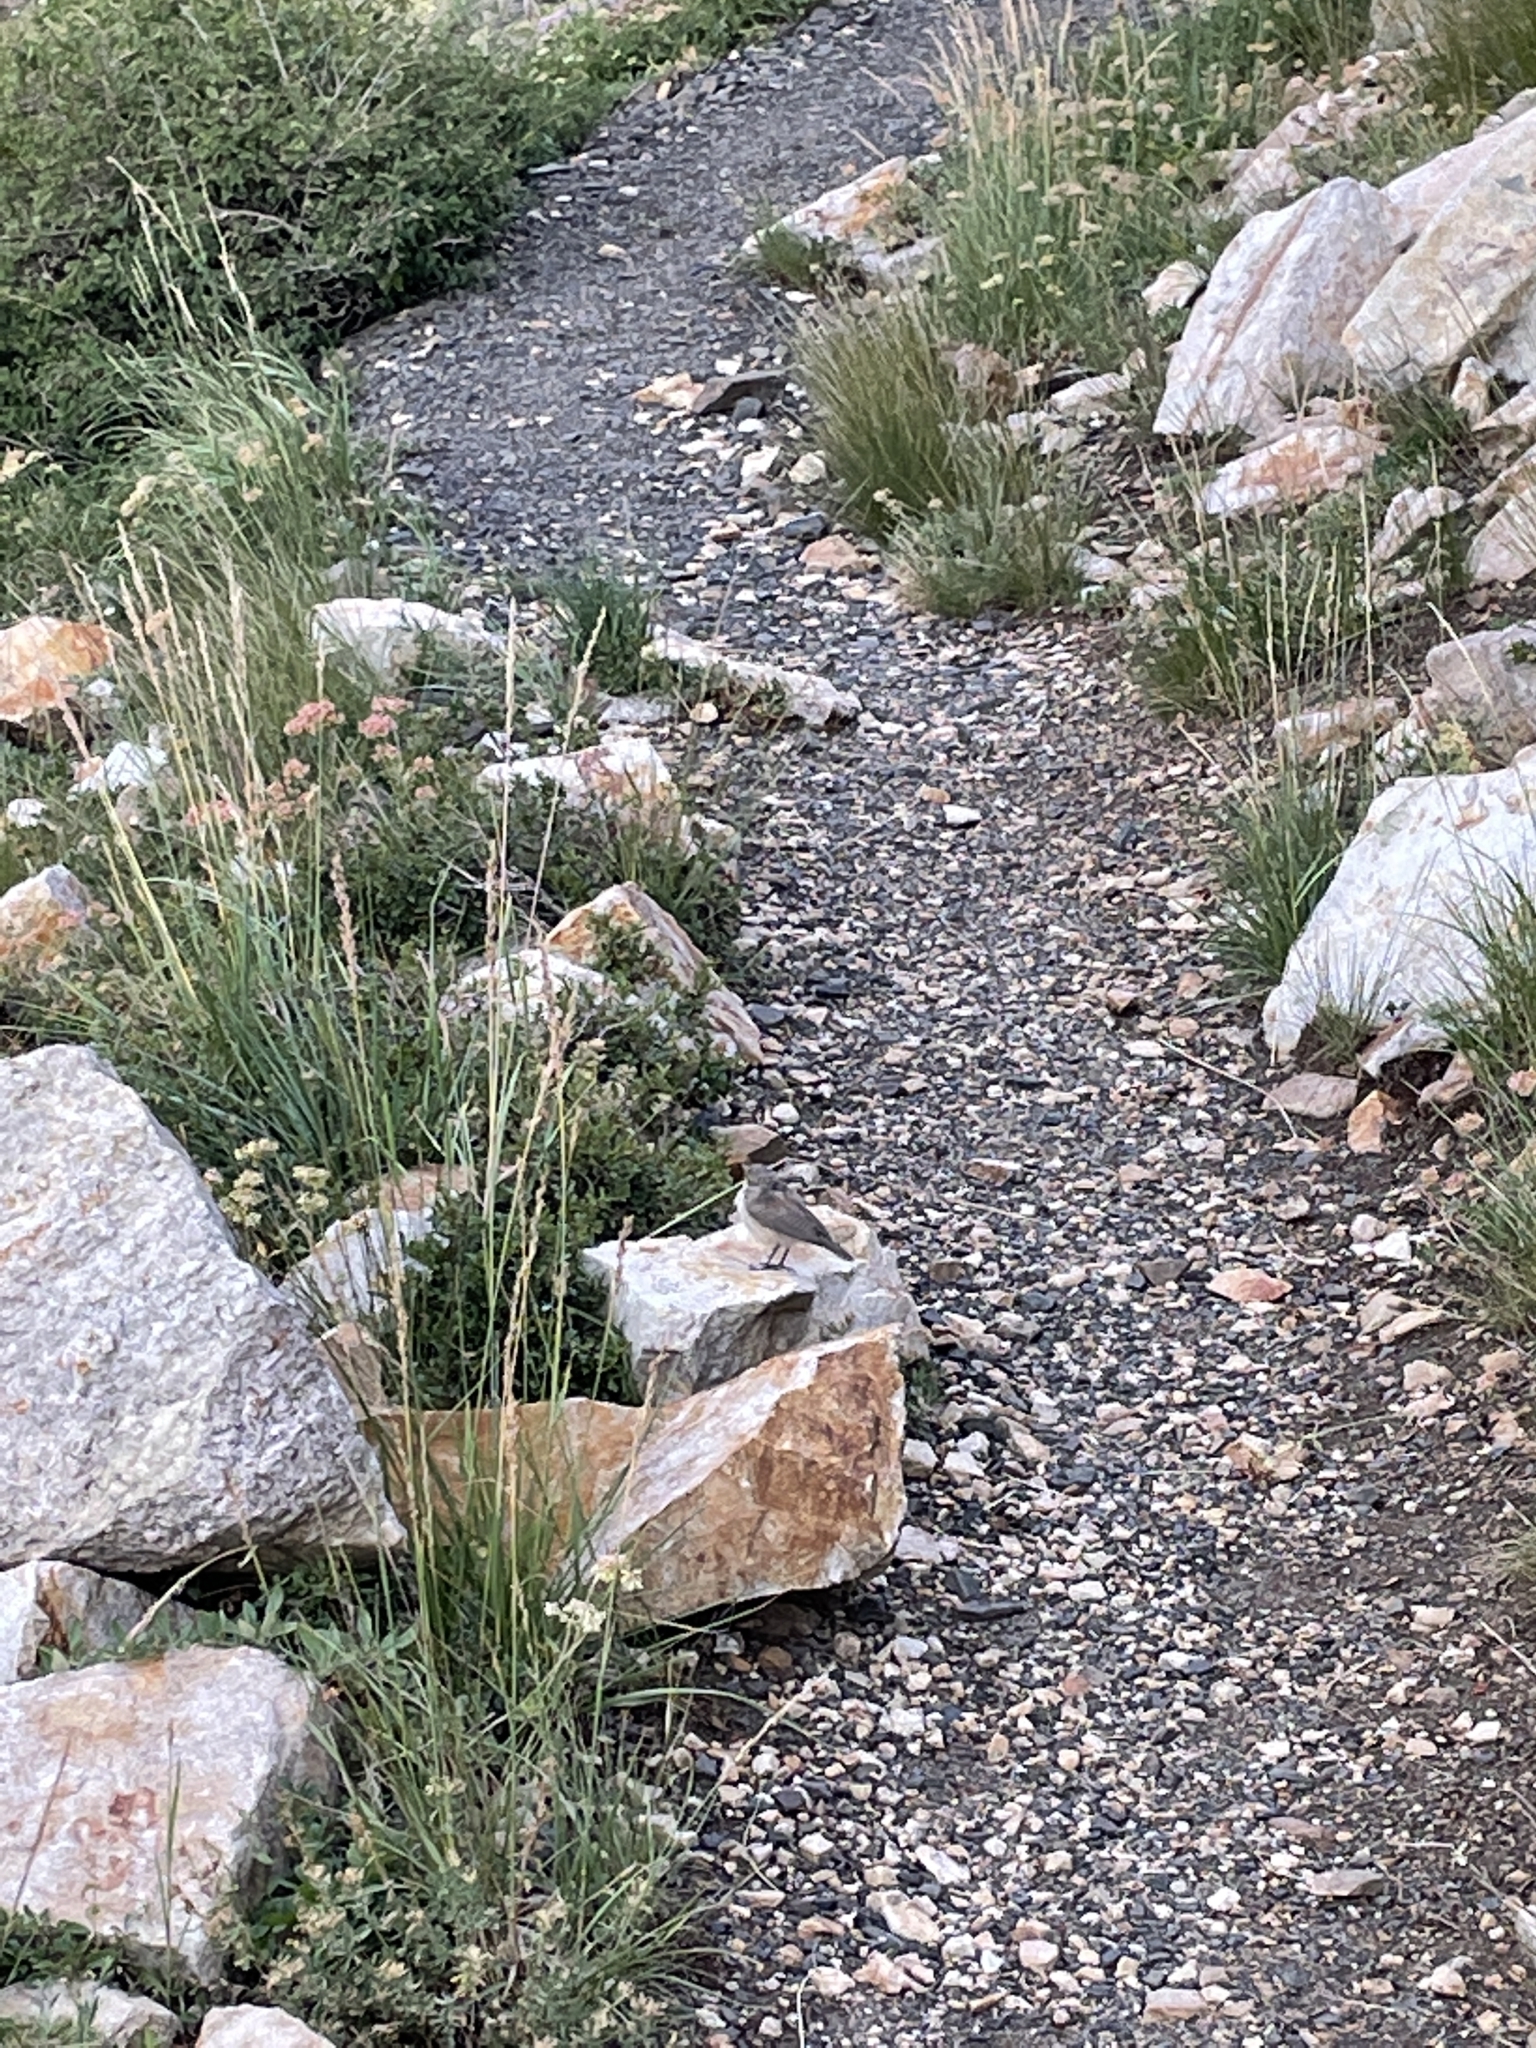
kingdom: Animalia
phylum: Chordata
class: Aves
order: Passeriformes
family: Troglodytidae
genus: Salpinctes
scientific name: Salpinctes obsoletus
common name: Rock wren
